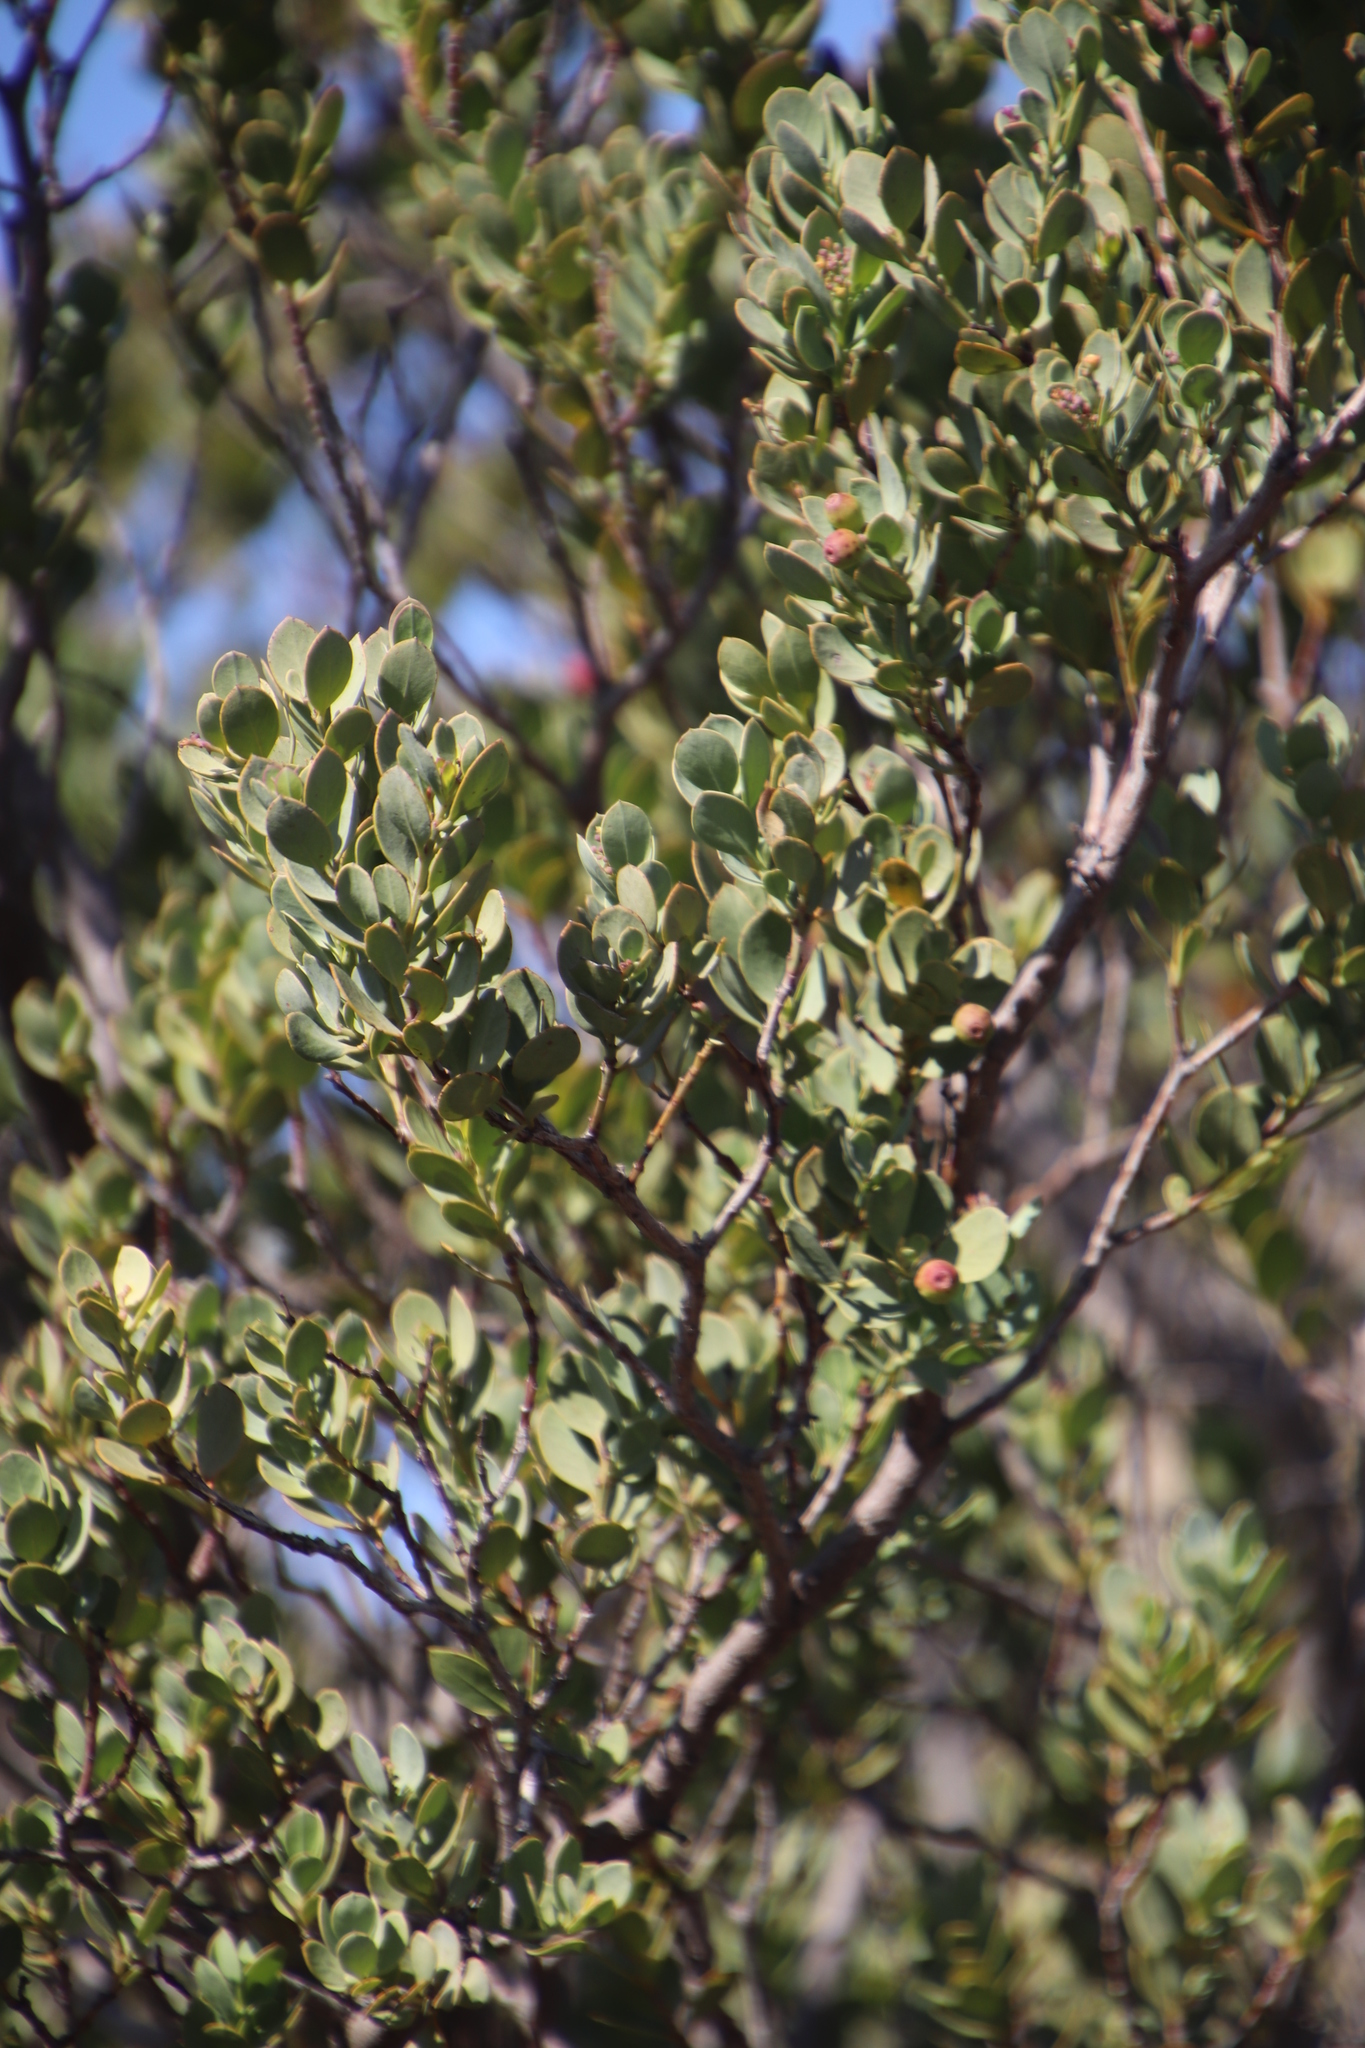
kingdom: Plantae
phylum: Tracheophyta
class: Magnoliopsida
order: Santalales
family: Santalaceae
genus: Osyris
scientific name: Osyris compressa
